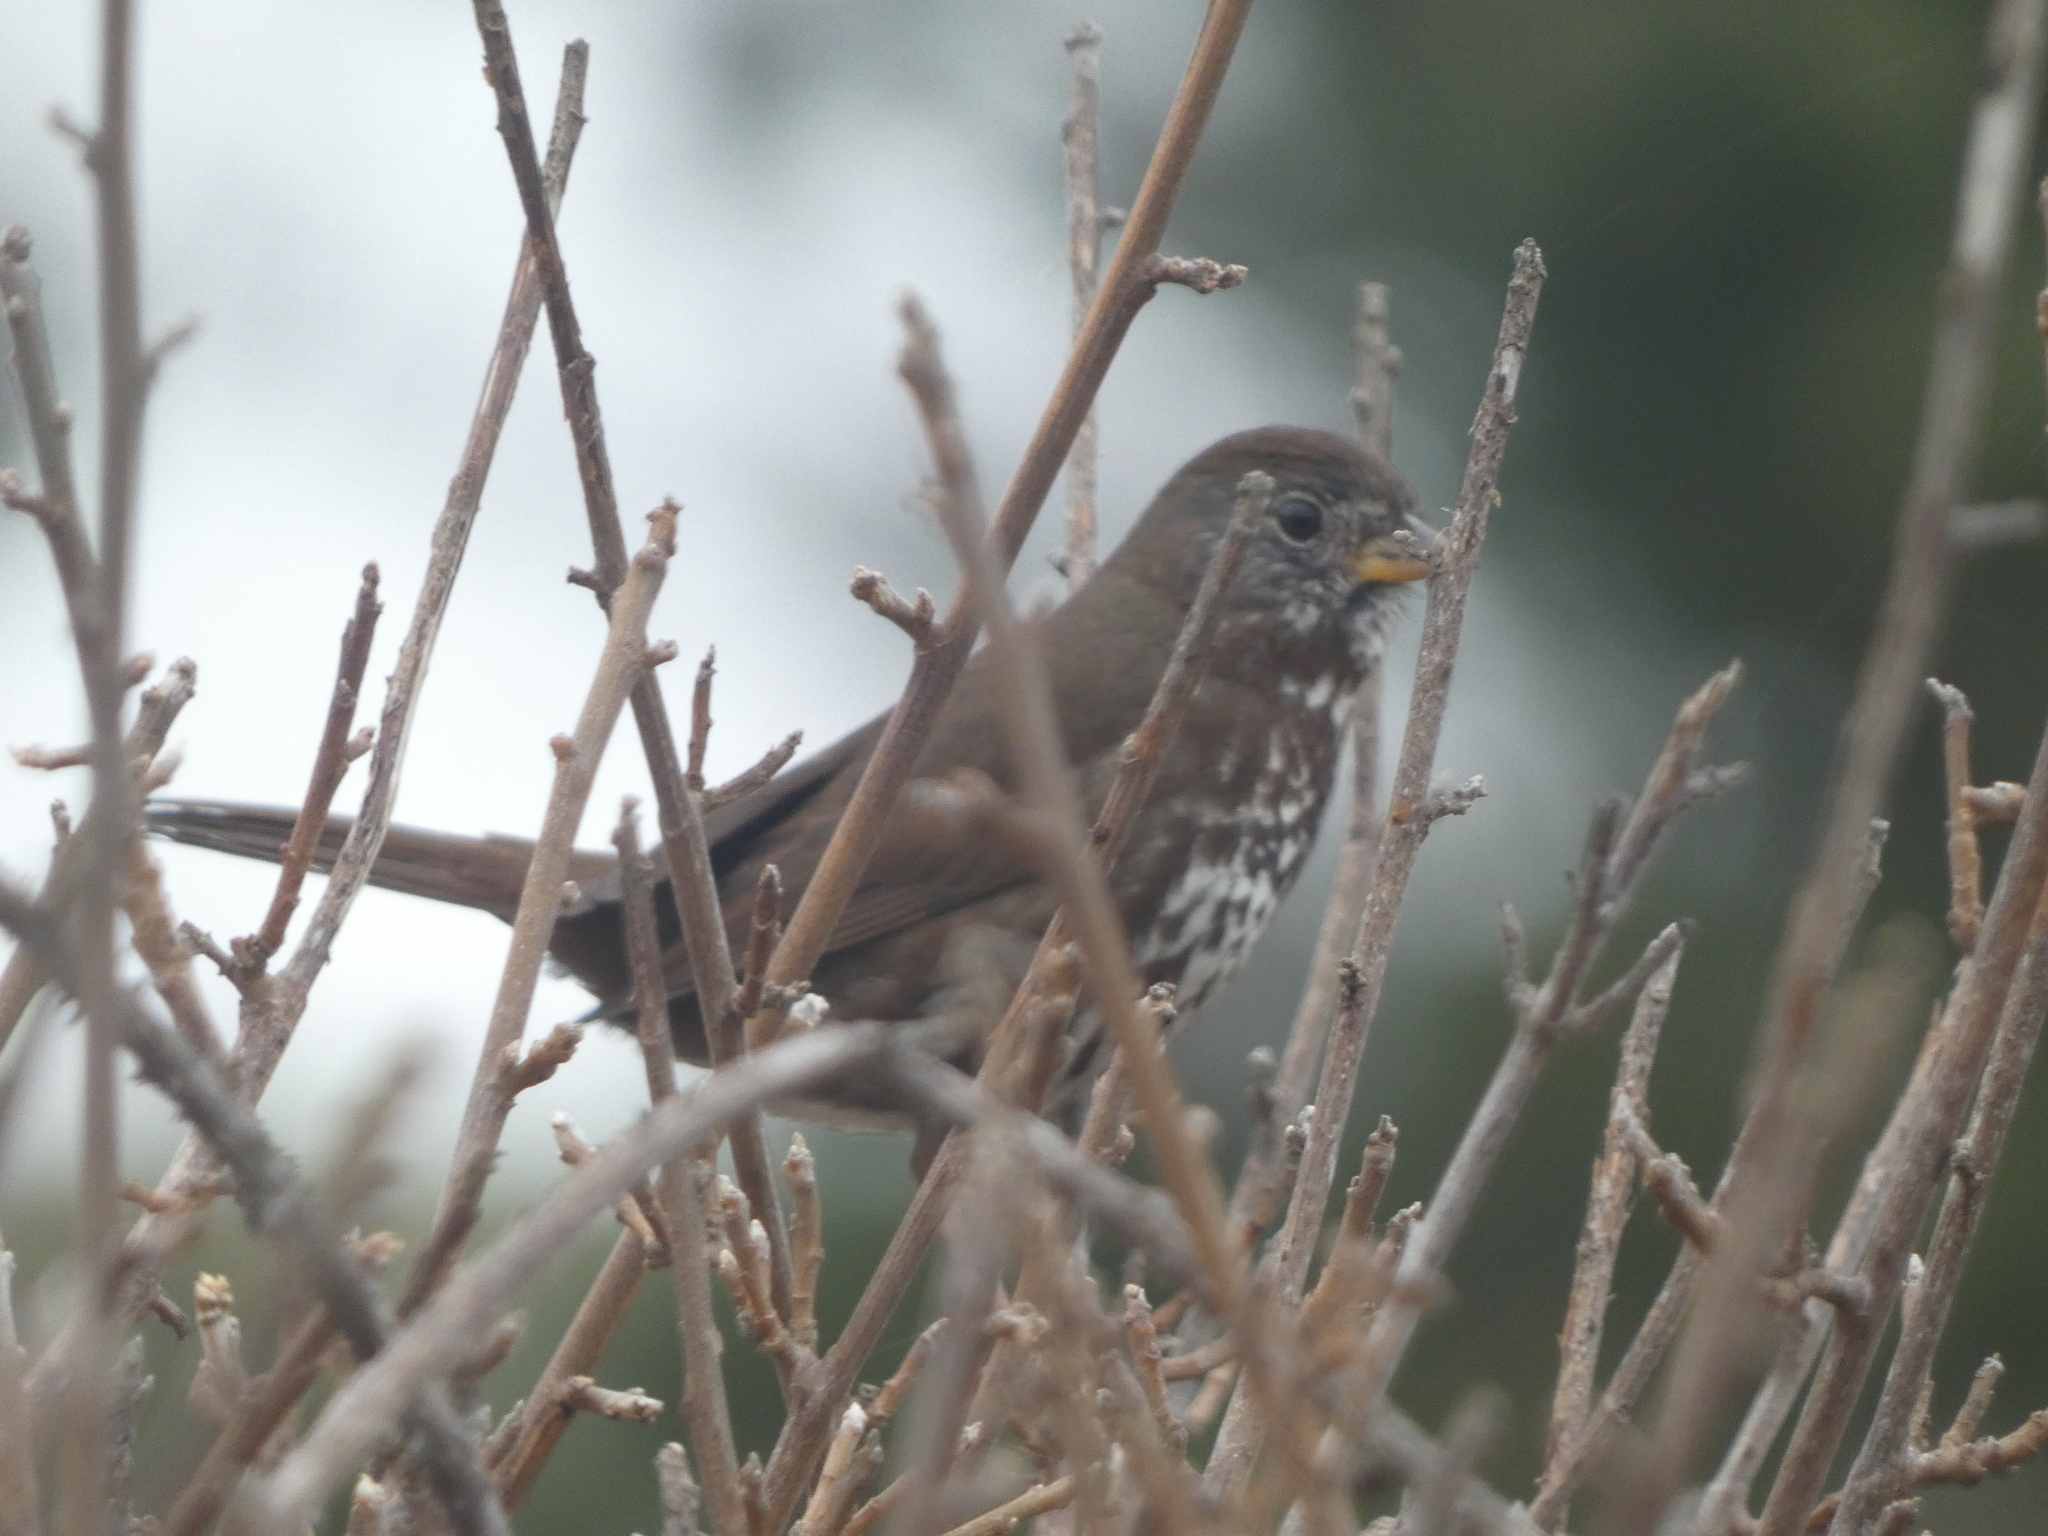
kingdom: Animalia
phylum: Chordata
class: Aves
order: Passeriformes
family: Passerellidae
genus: Passerella
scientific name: Passerella iliaca
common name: Fox sparrow
